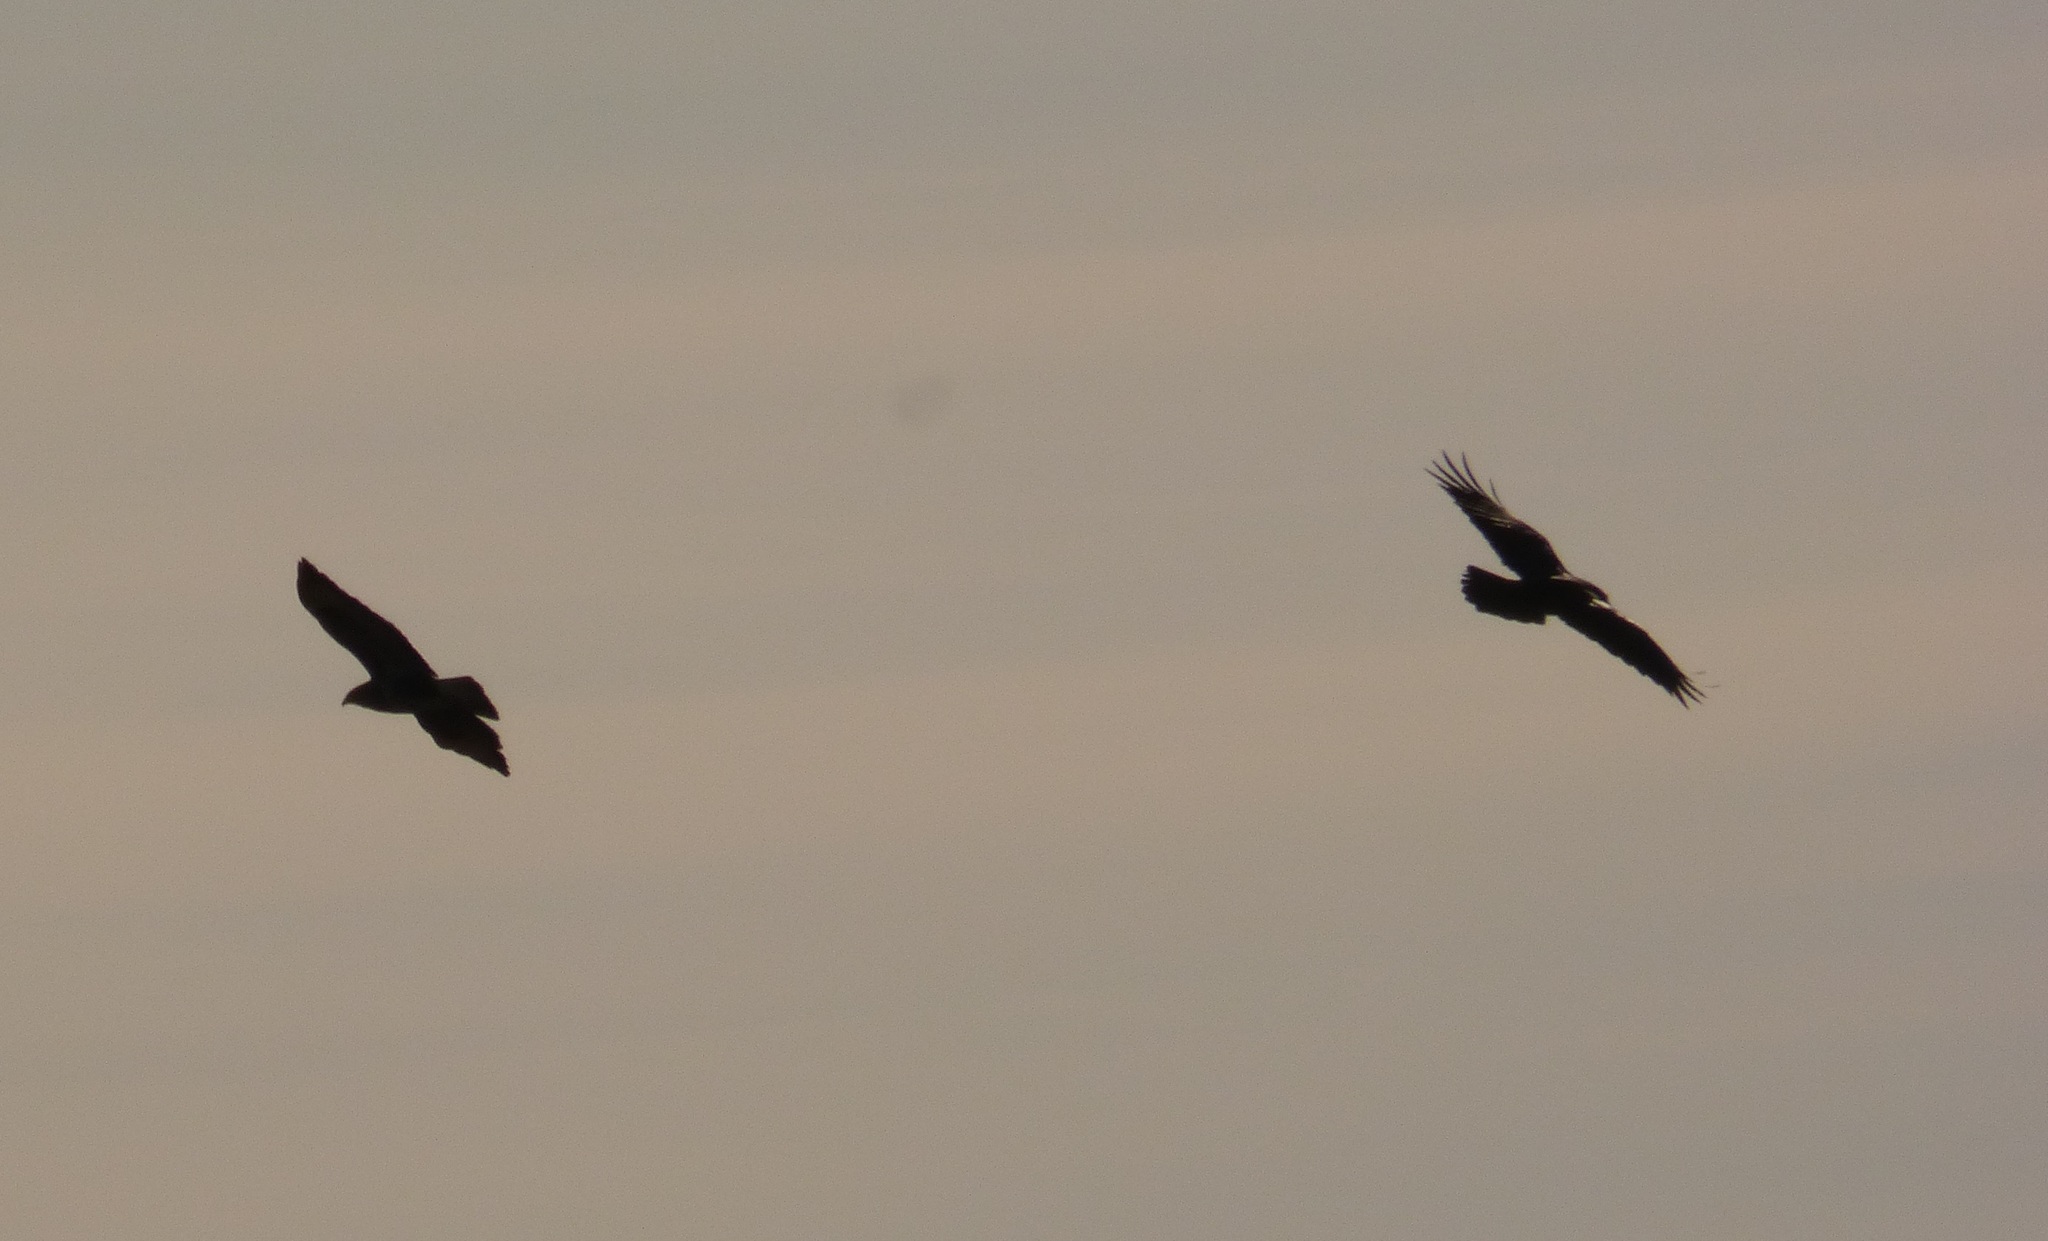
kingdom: Animalia
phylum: Chordata
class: Aves
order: Passeriformes
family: Corvidae
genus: Corvus
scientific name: Corvus corax
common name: Common raven
